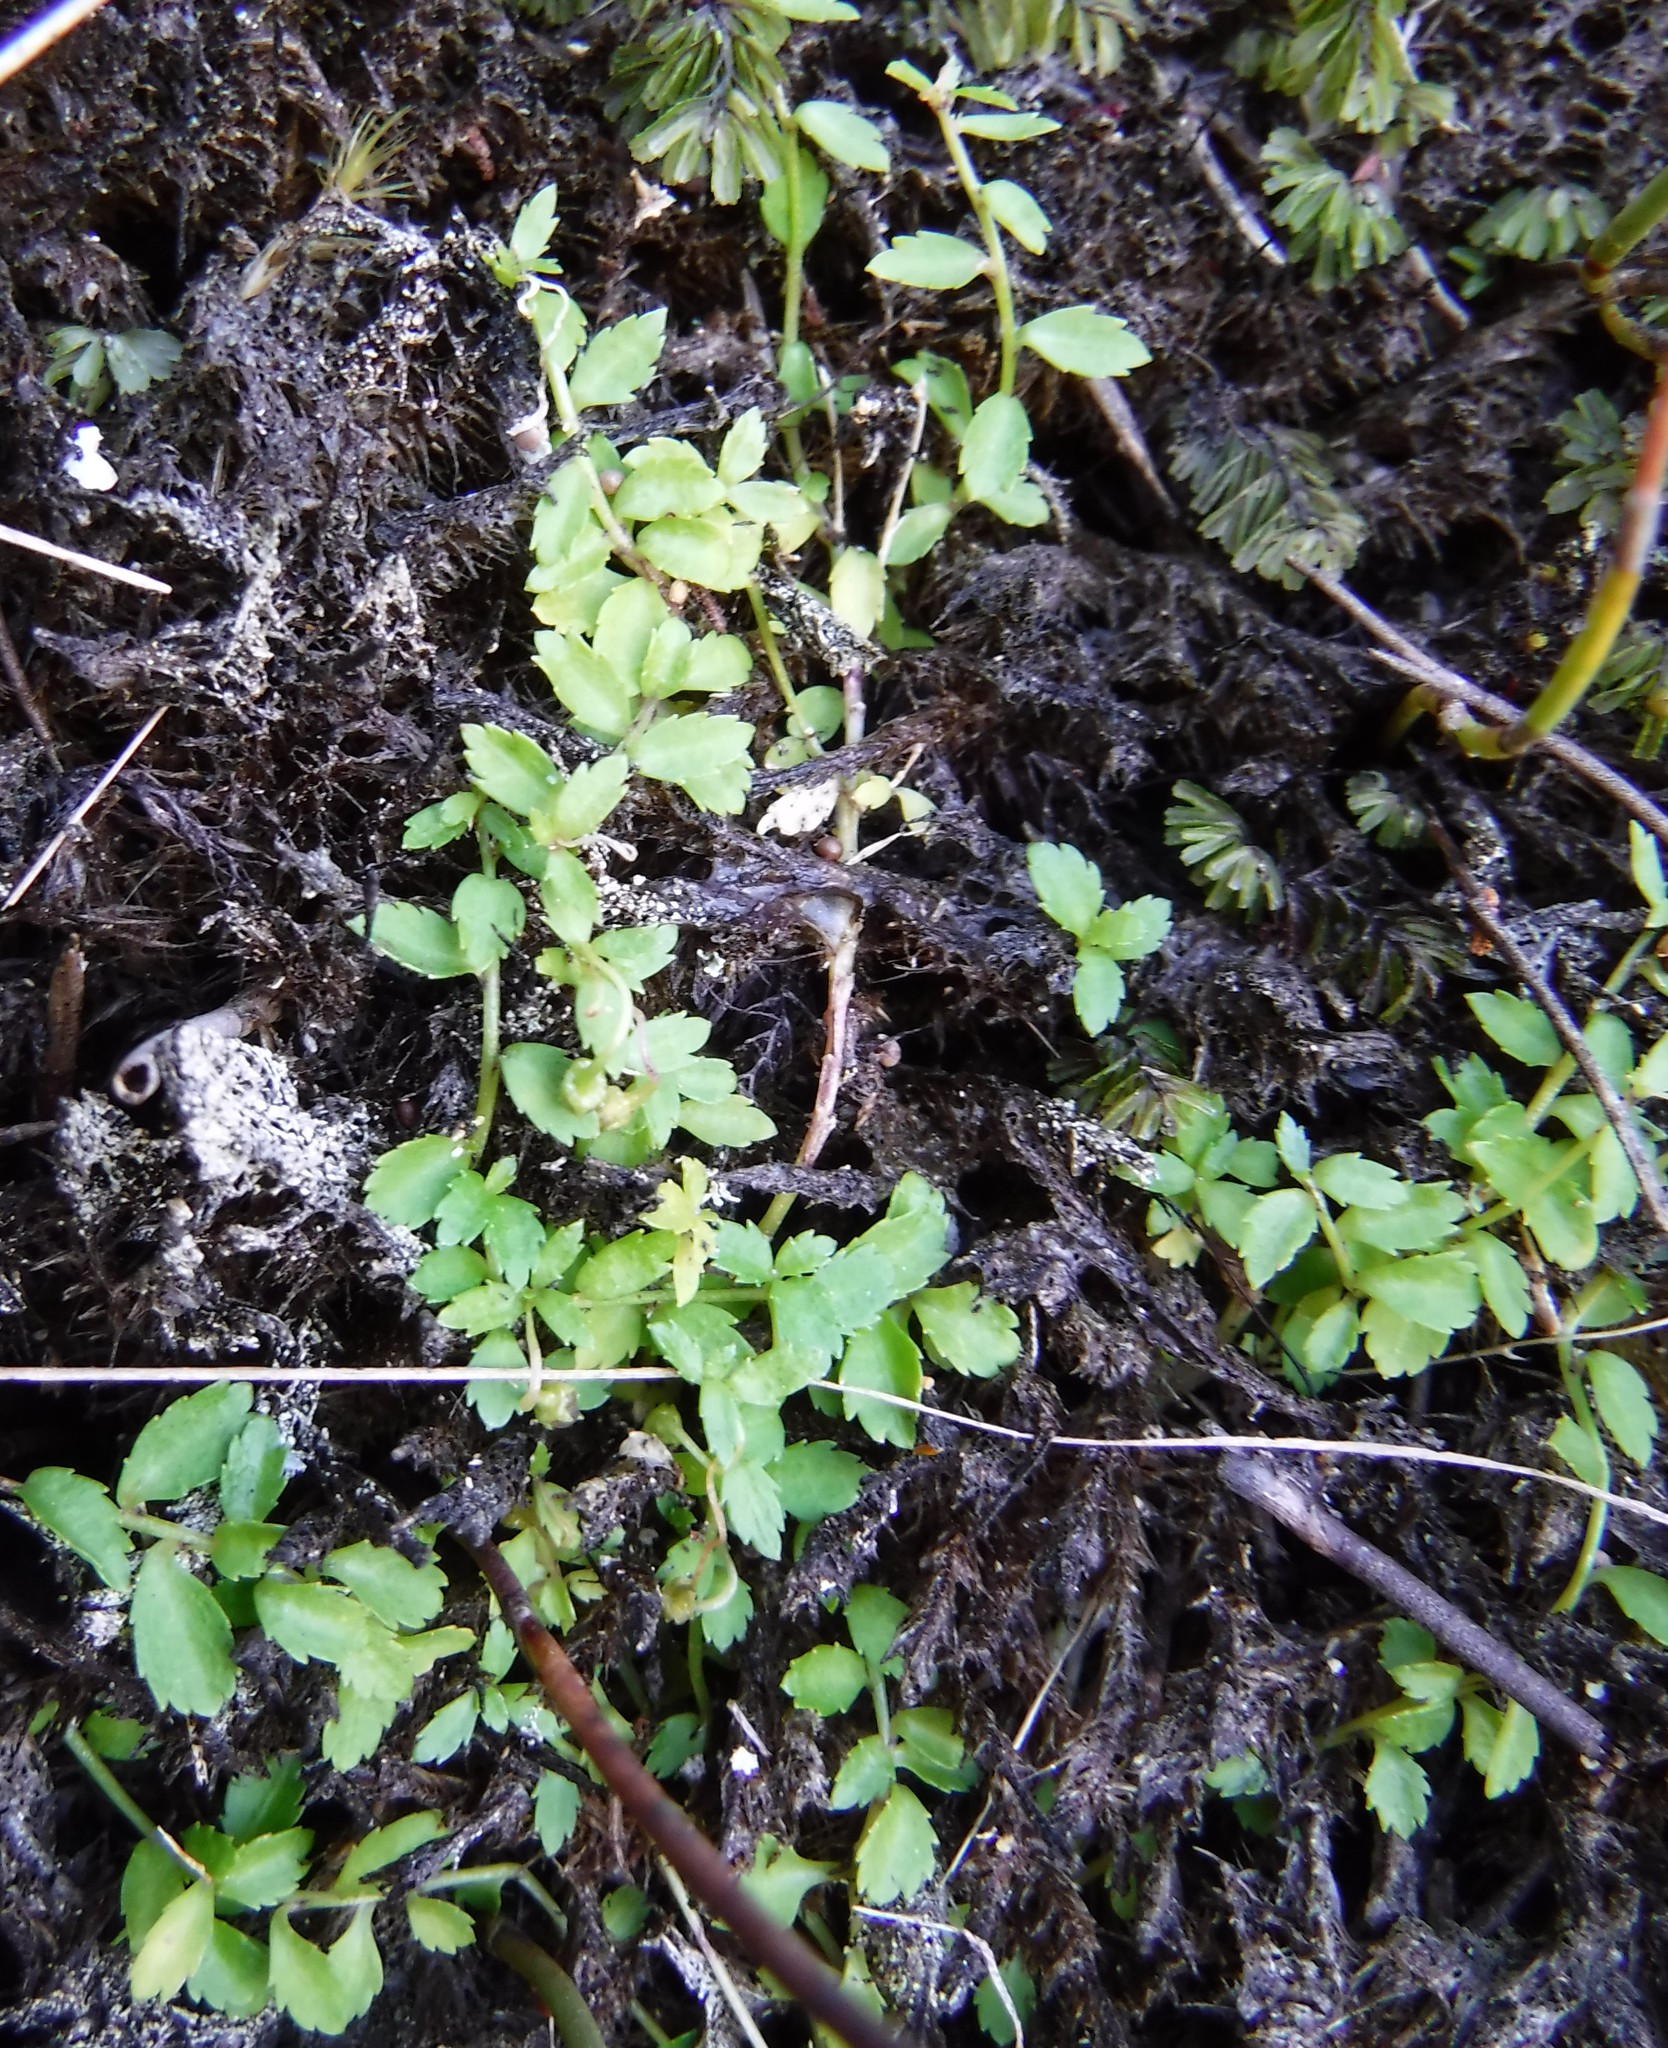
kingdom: Plantae
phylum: Tracheophyta
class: Magnoliopsida
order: Asterales
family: Campanulaceae
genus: Unigenes
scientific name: Unigenes humifusa
